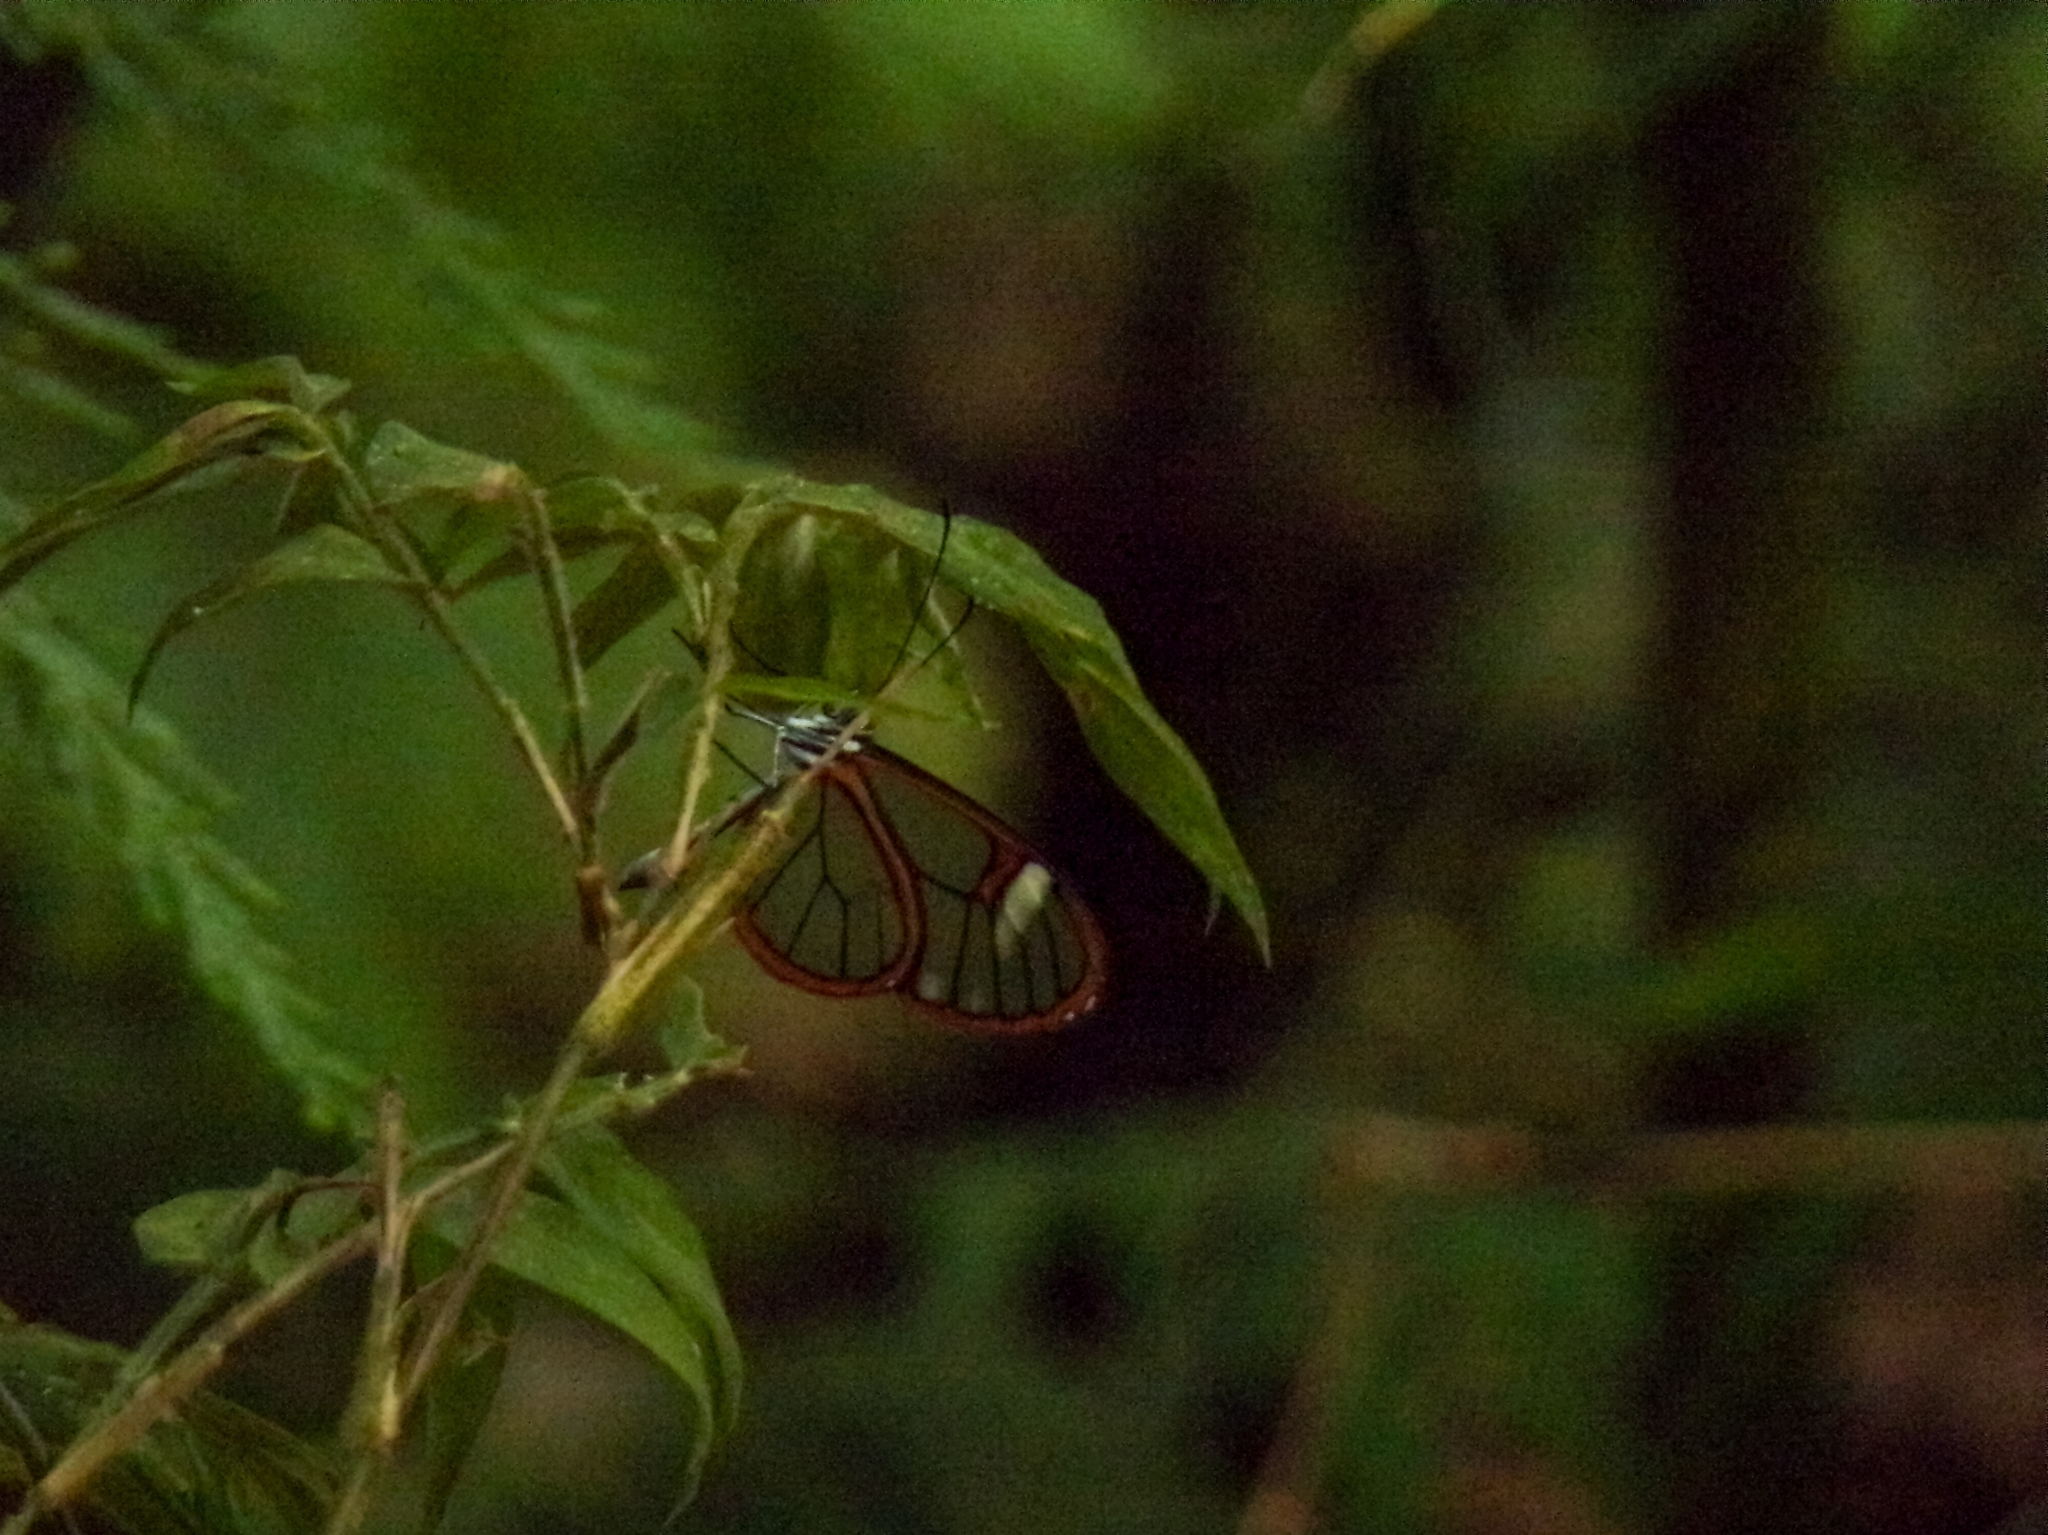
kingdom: Animalia
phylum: Arthropoda
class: Insecta
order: Lepidoptera
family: Nymphalidae
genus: Pteronymia
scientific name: Pteronymia artena
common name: Artena clearwing
